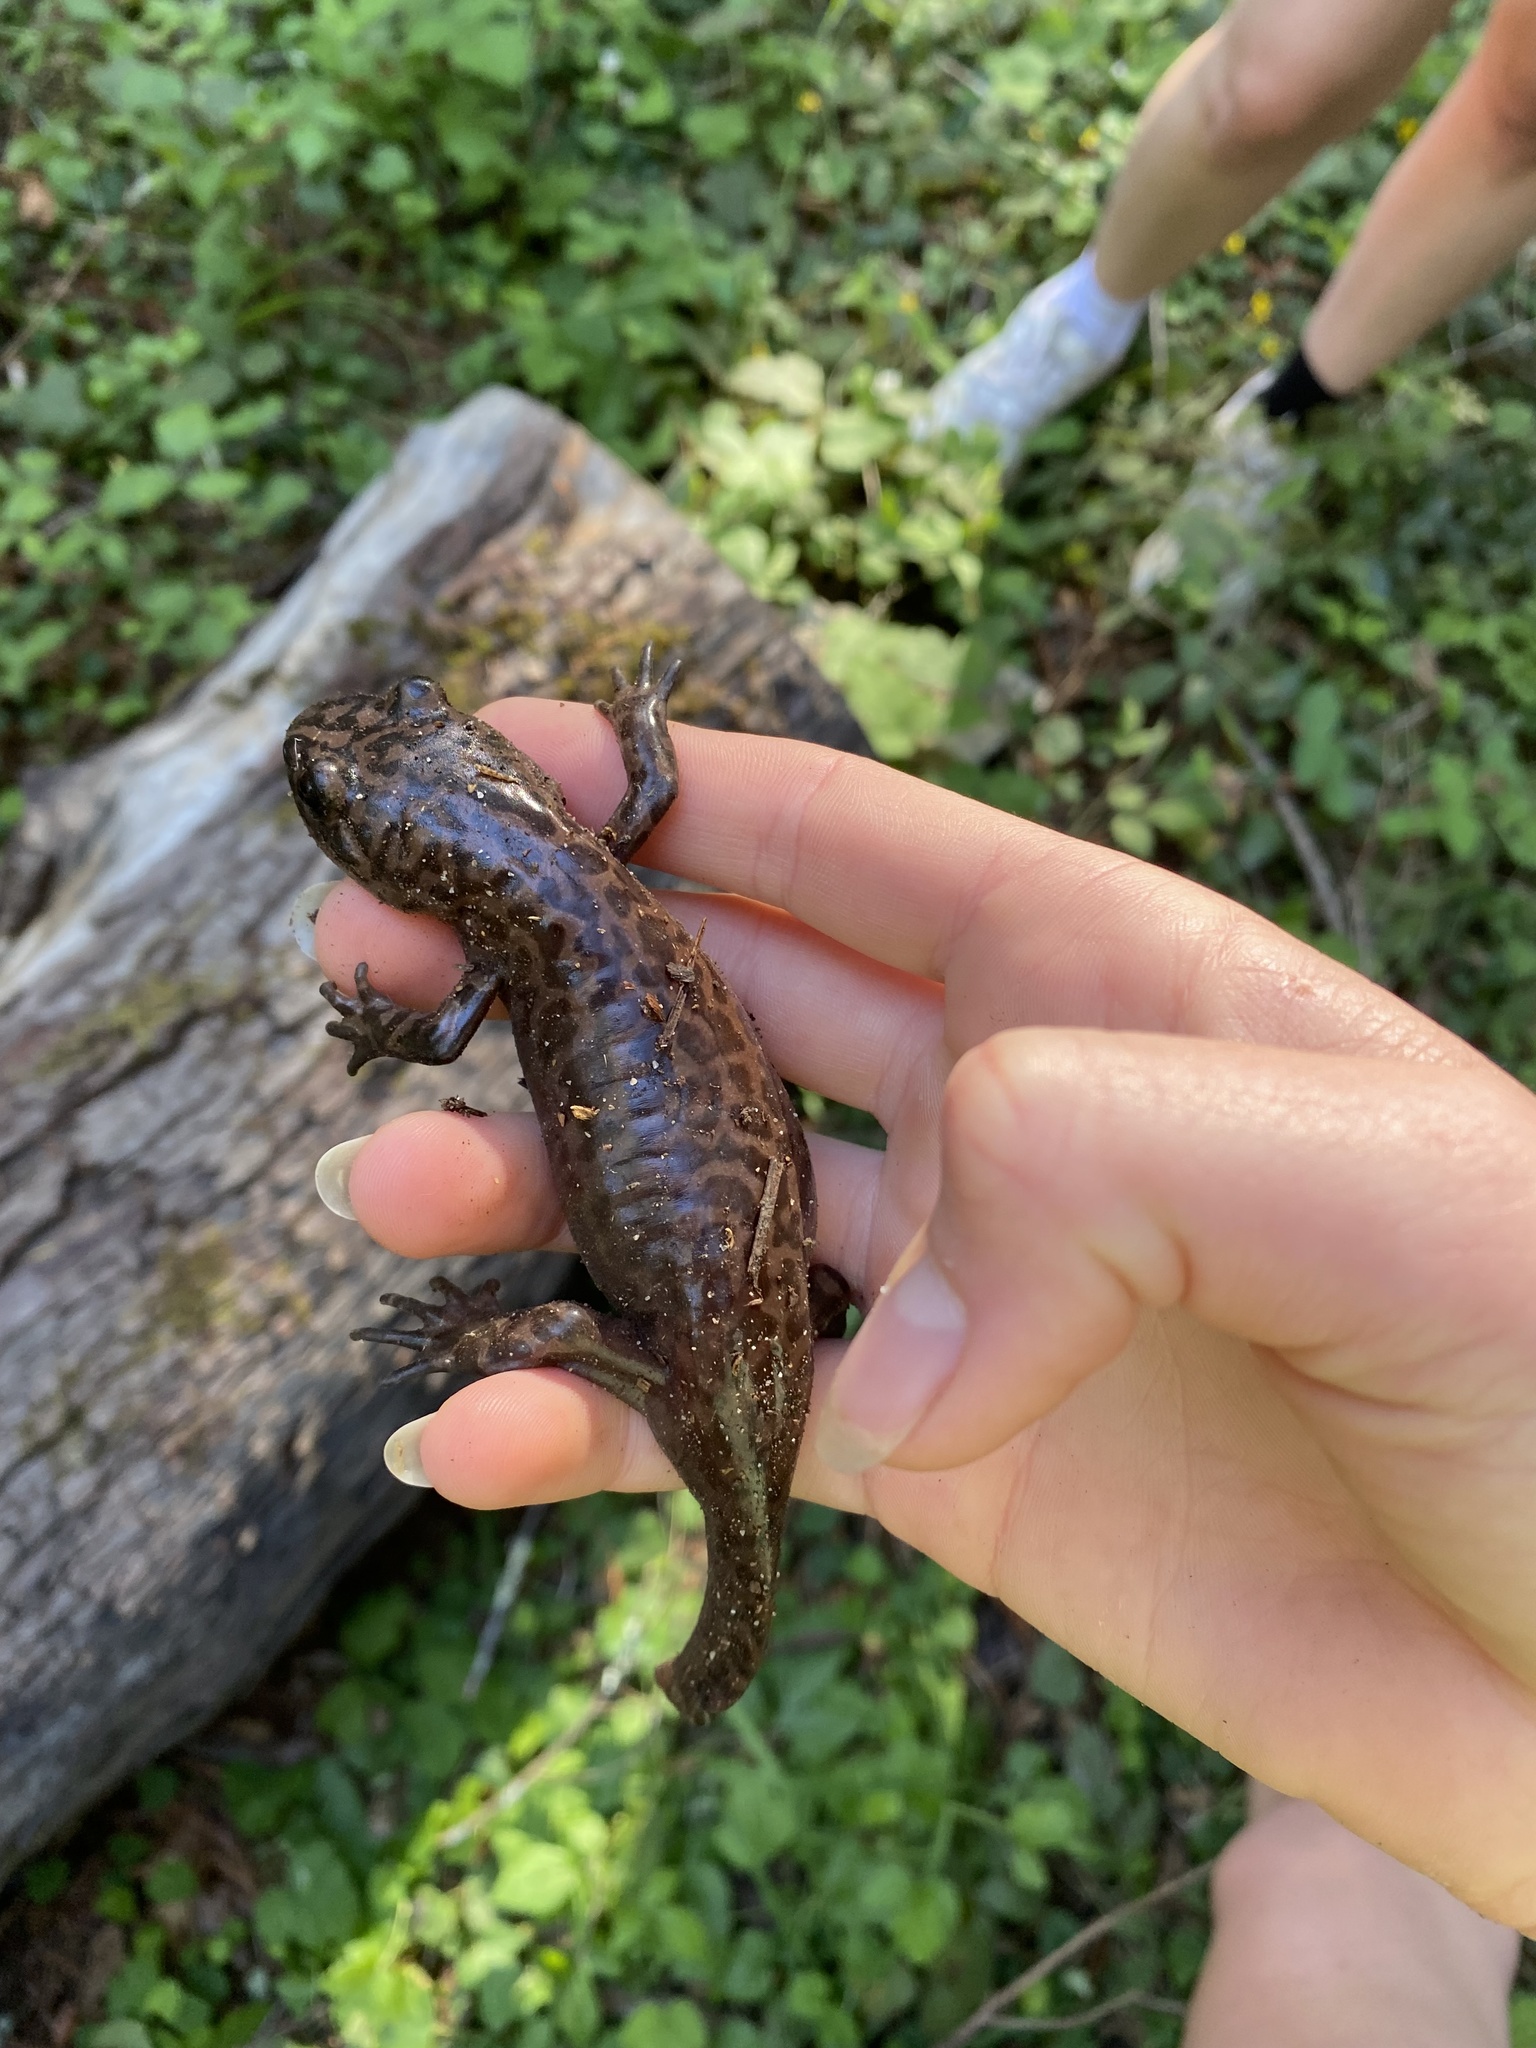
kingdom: Animalia
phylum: Chordata
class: Amphibia
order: Caudata
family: Ambystomatidae
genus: Dicamptodon
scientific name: Dicamptodon ensatus
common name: California giant salamander
